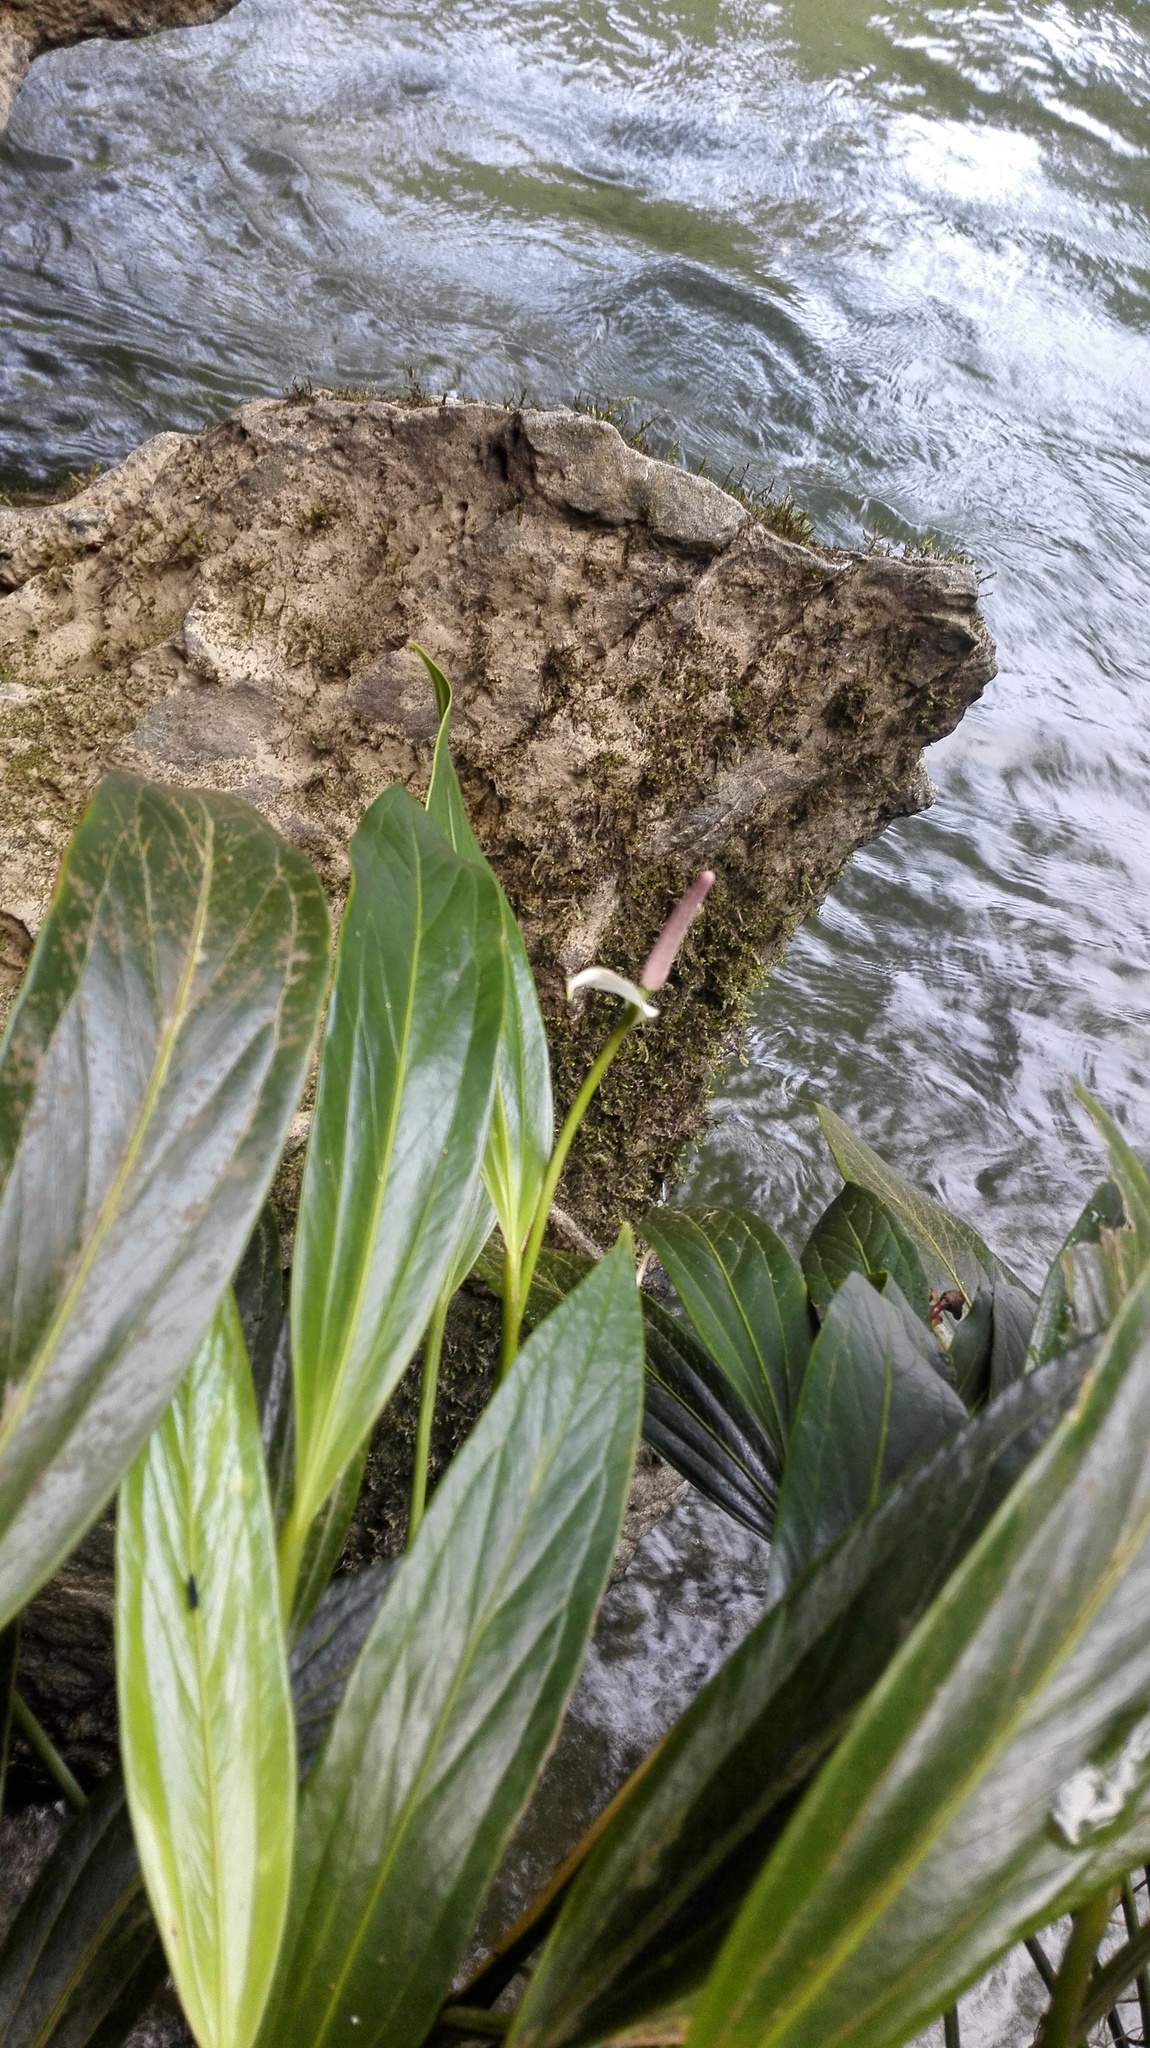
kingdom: Plantae
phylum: Tracheophyta
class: Liliopsida
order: Alismatales
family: Araceae
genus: Anthurium
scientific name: Anthurium antioquiense
